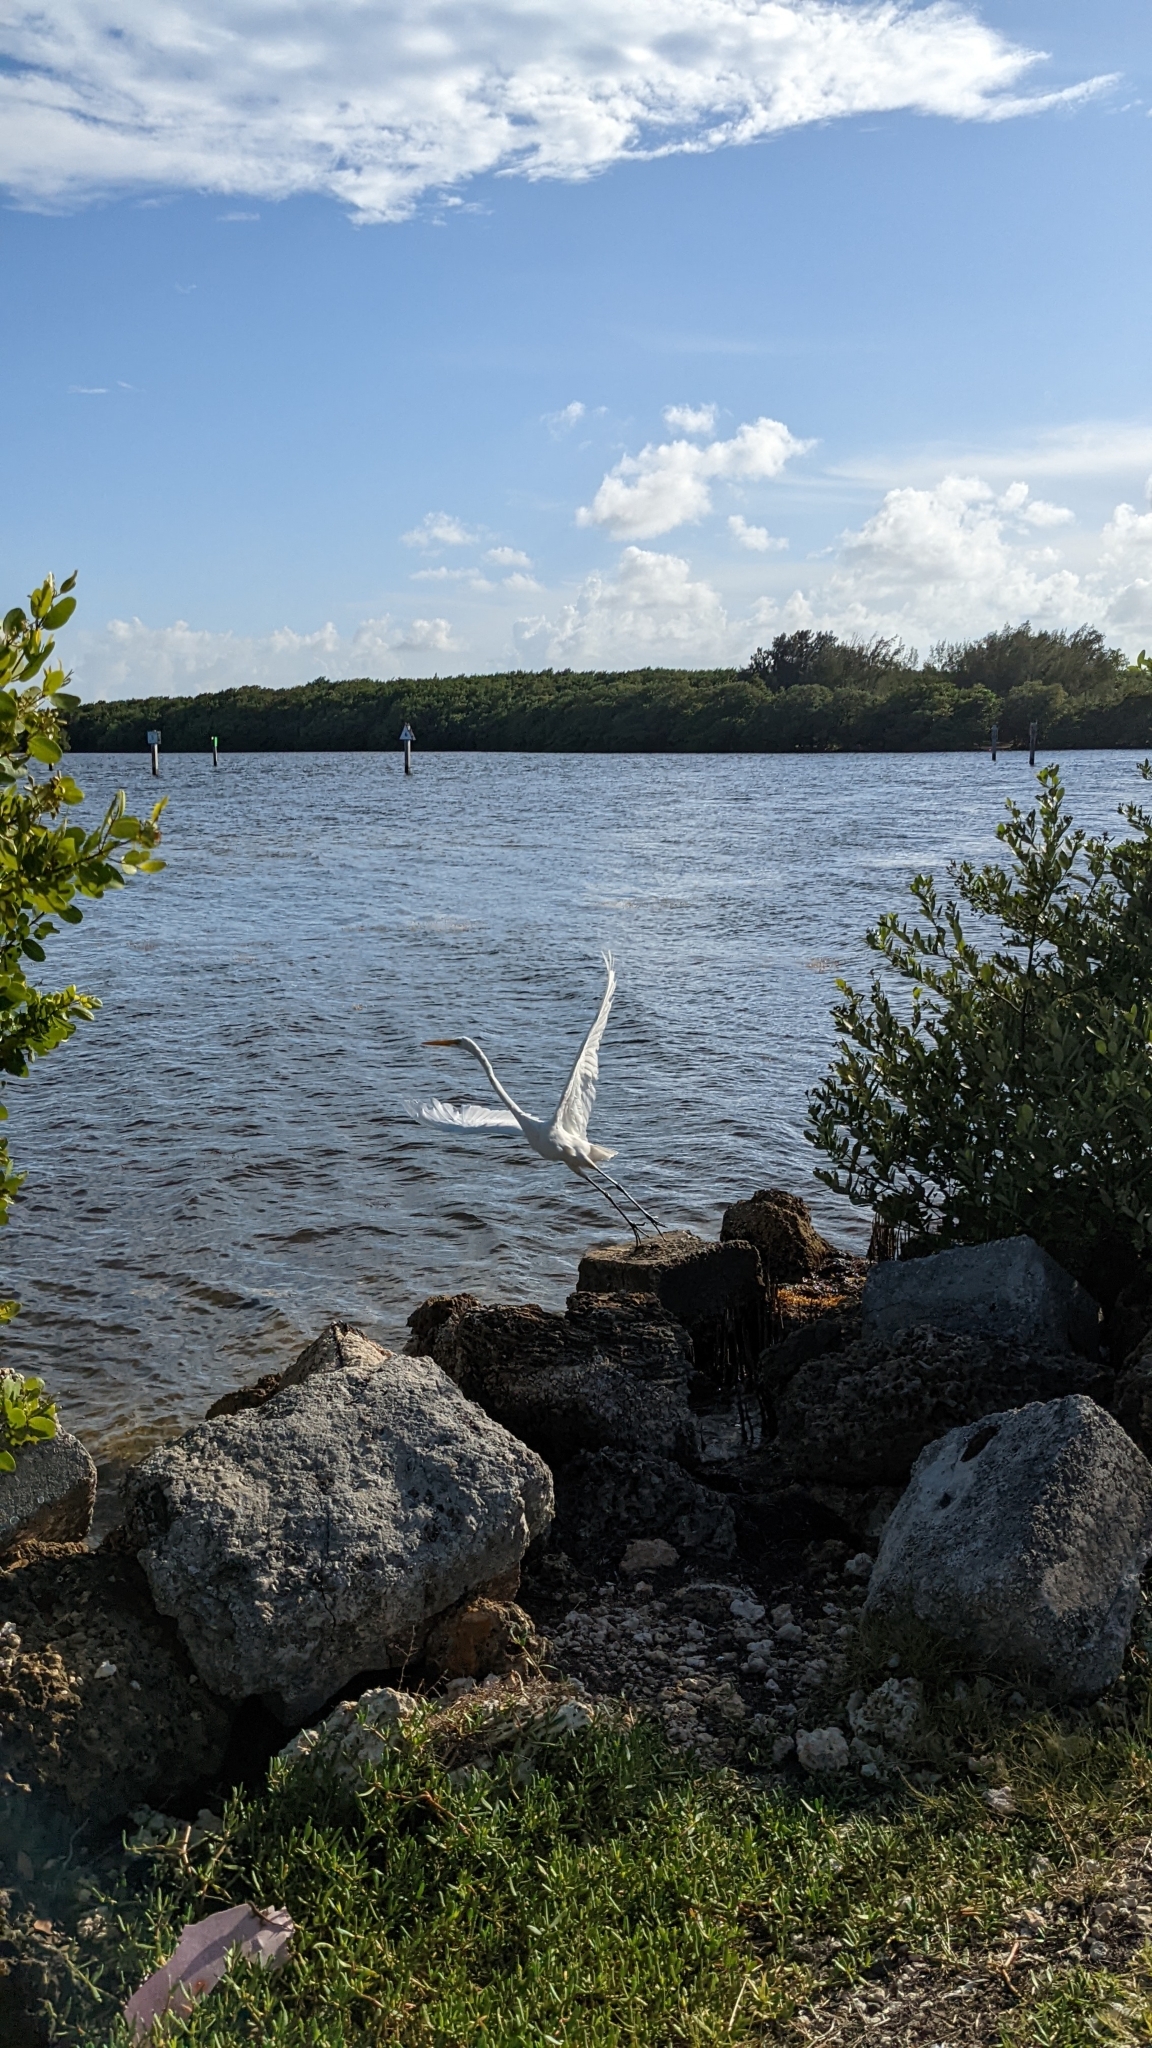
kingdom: Animalia
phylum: Chordata
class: Aves
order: Pelecaniformes
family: Ardeidae
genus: Ardea
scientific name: Ardea alba
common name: Great egret
